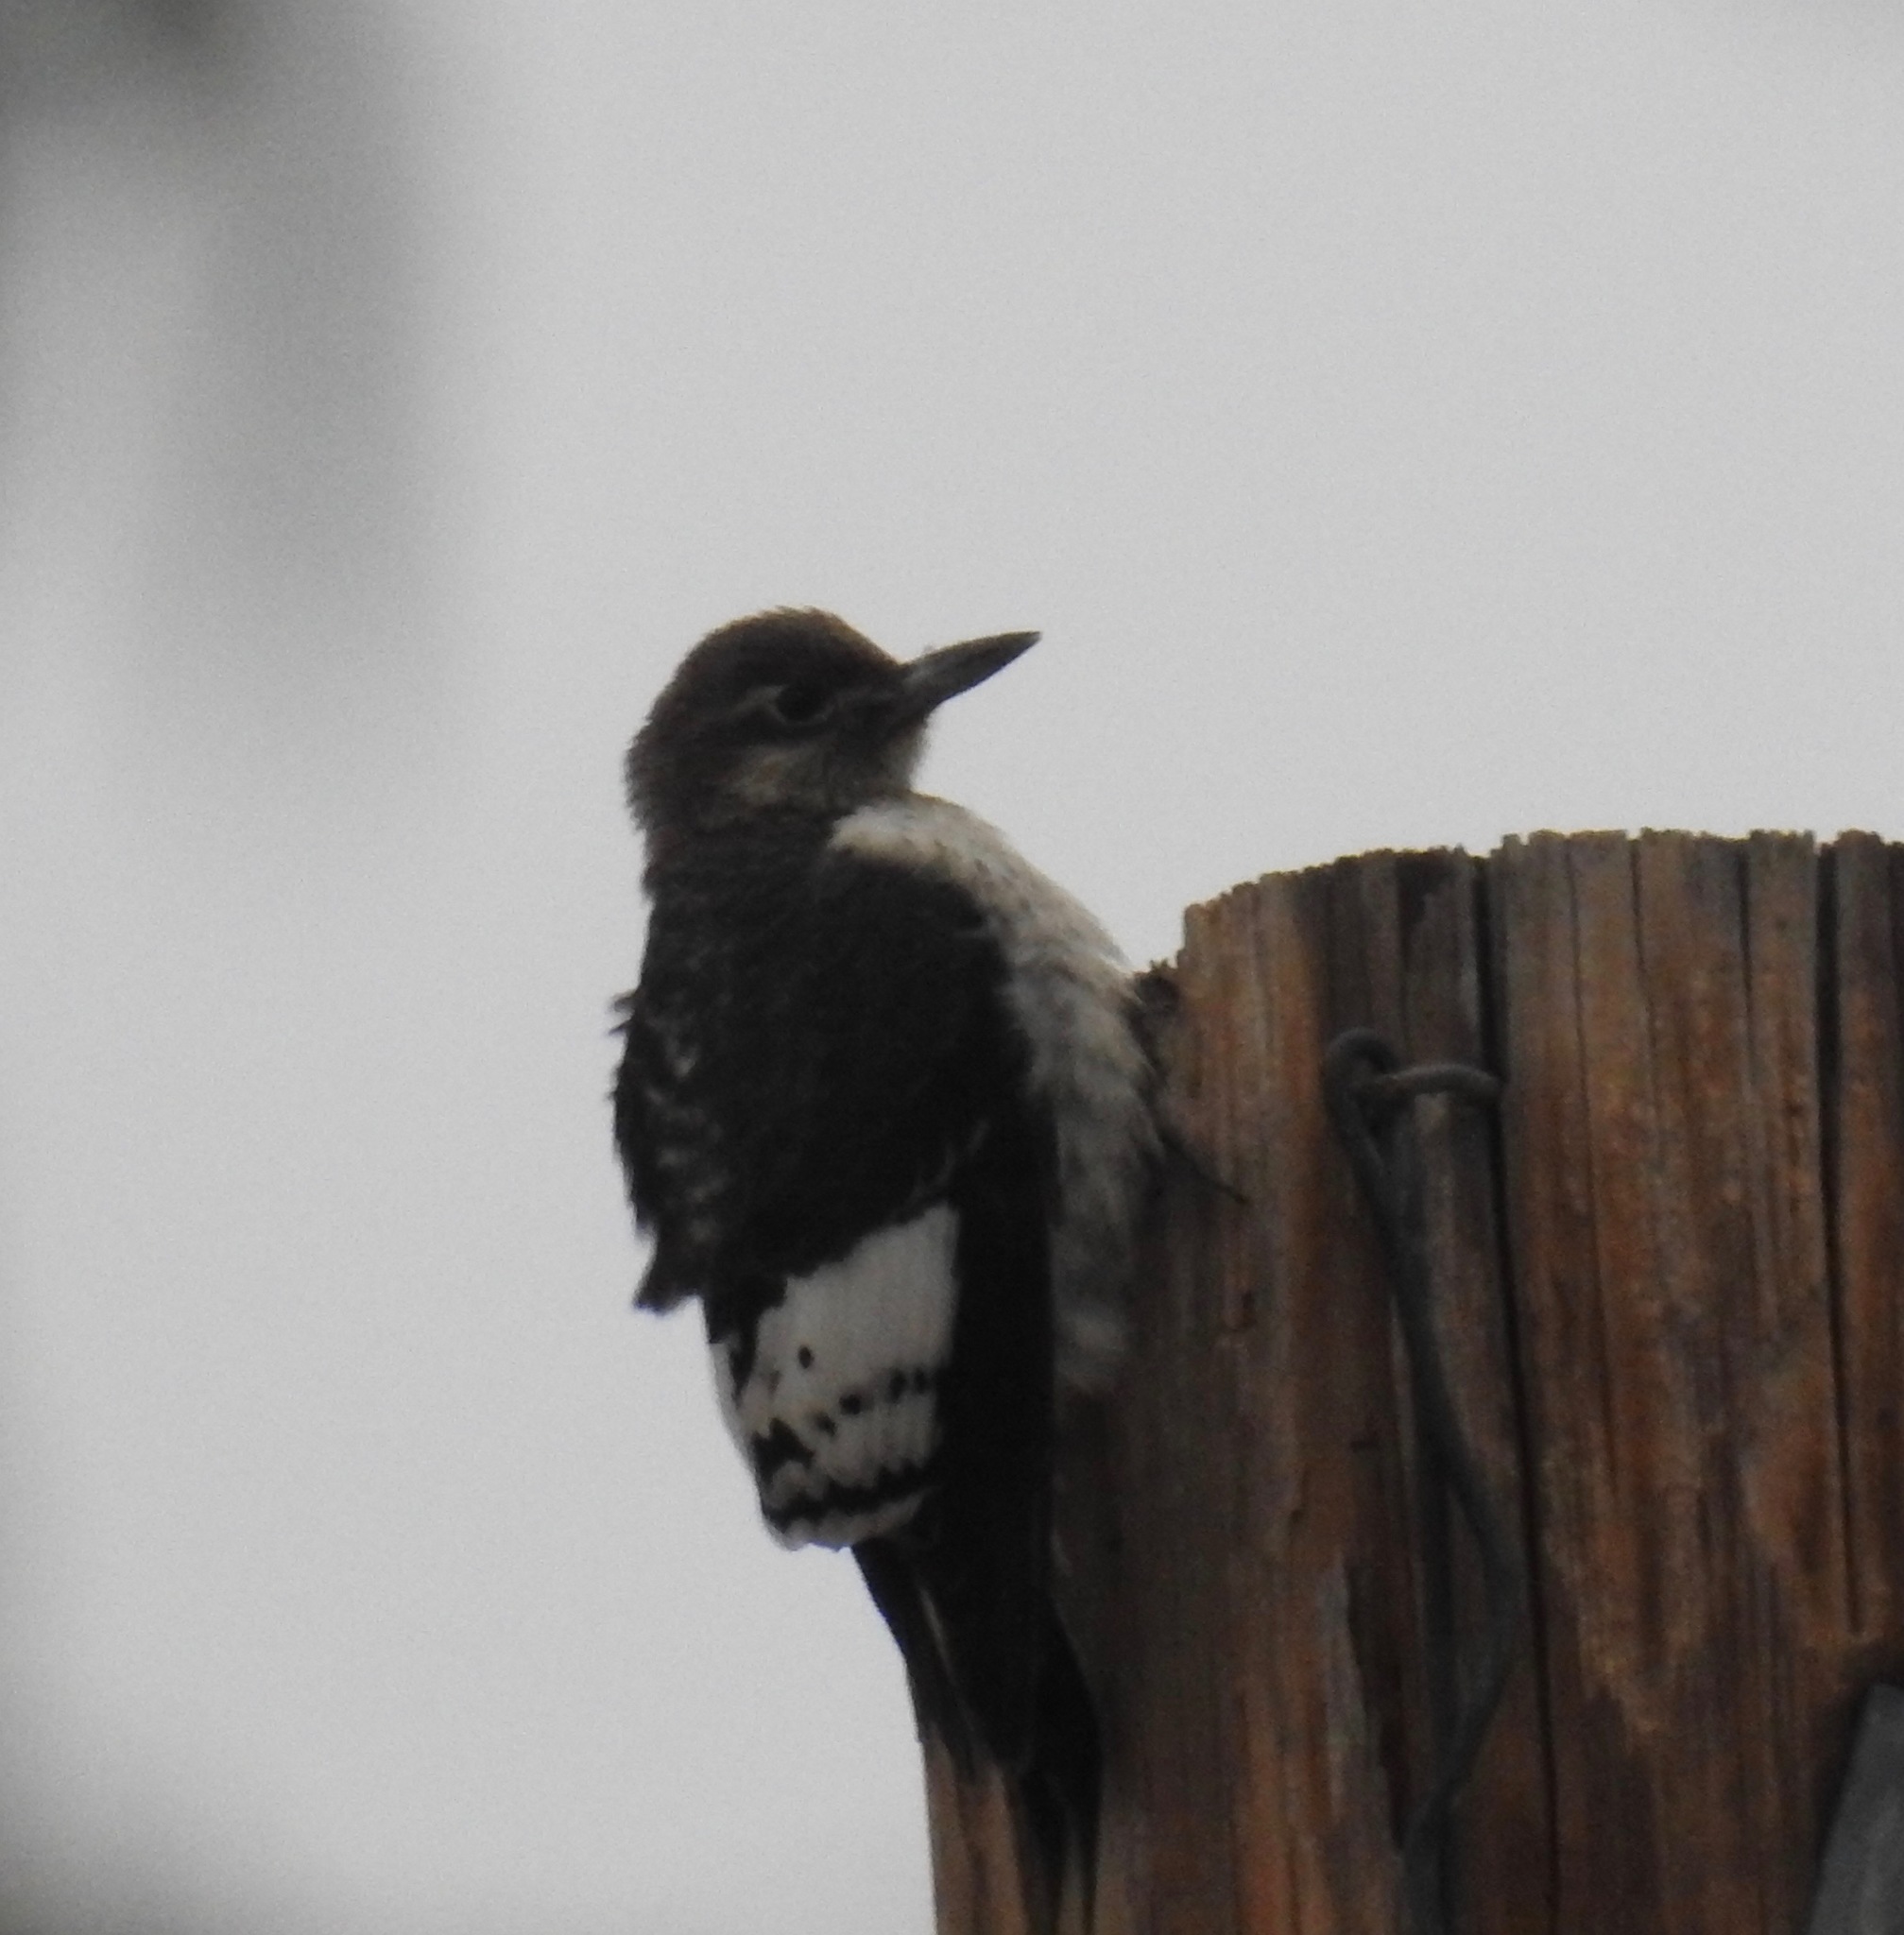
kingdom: Animalia
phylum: Chordata
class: Aves
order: Piciformes
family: Picidae
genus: Melanerpes
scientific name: Melanerpes erythrocephalus
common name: Red-headed woodpecker
